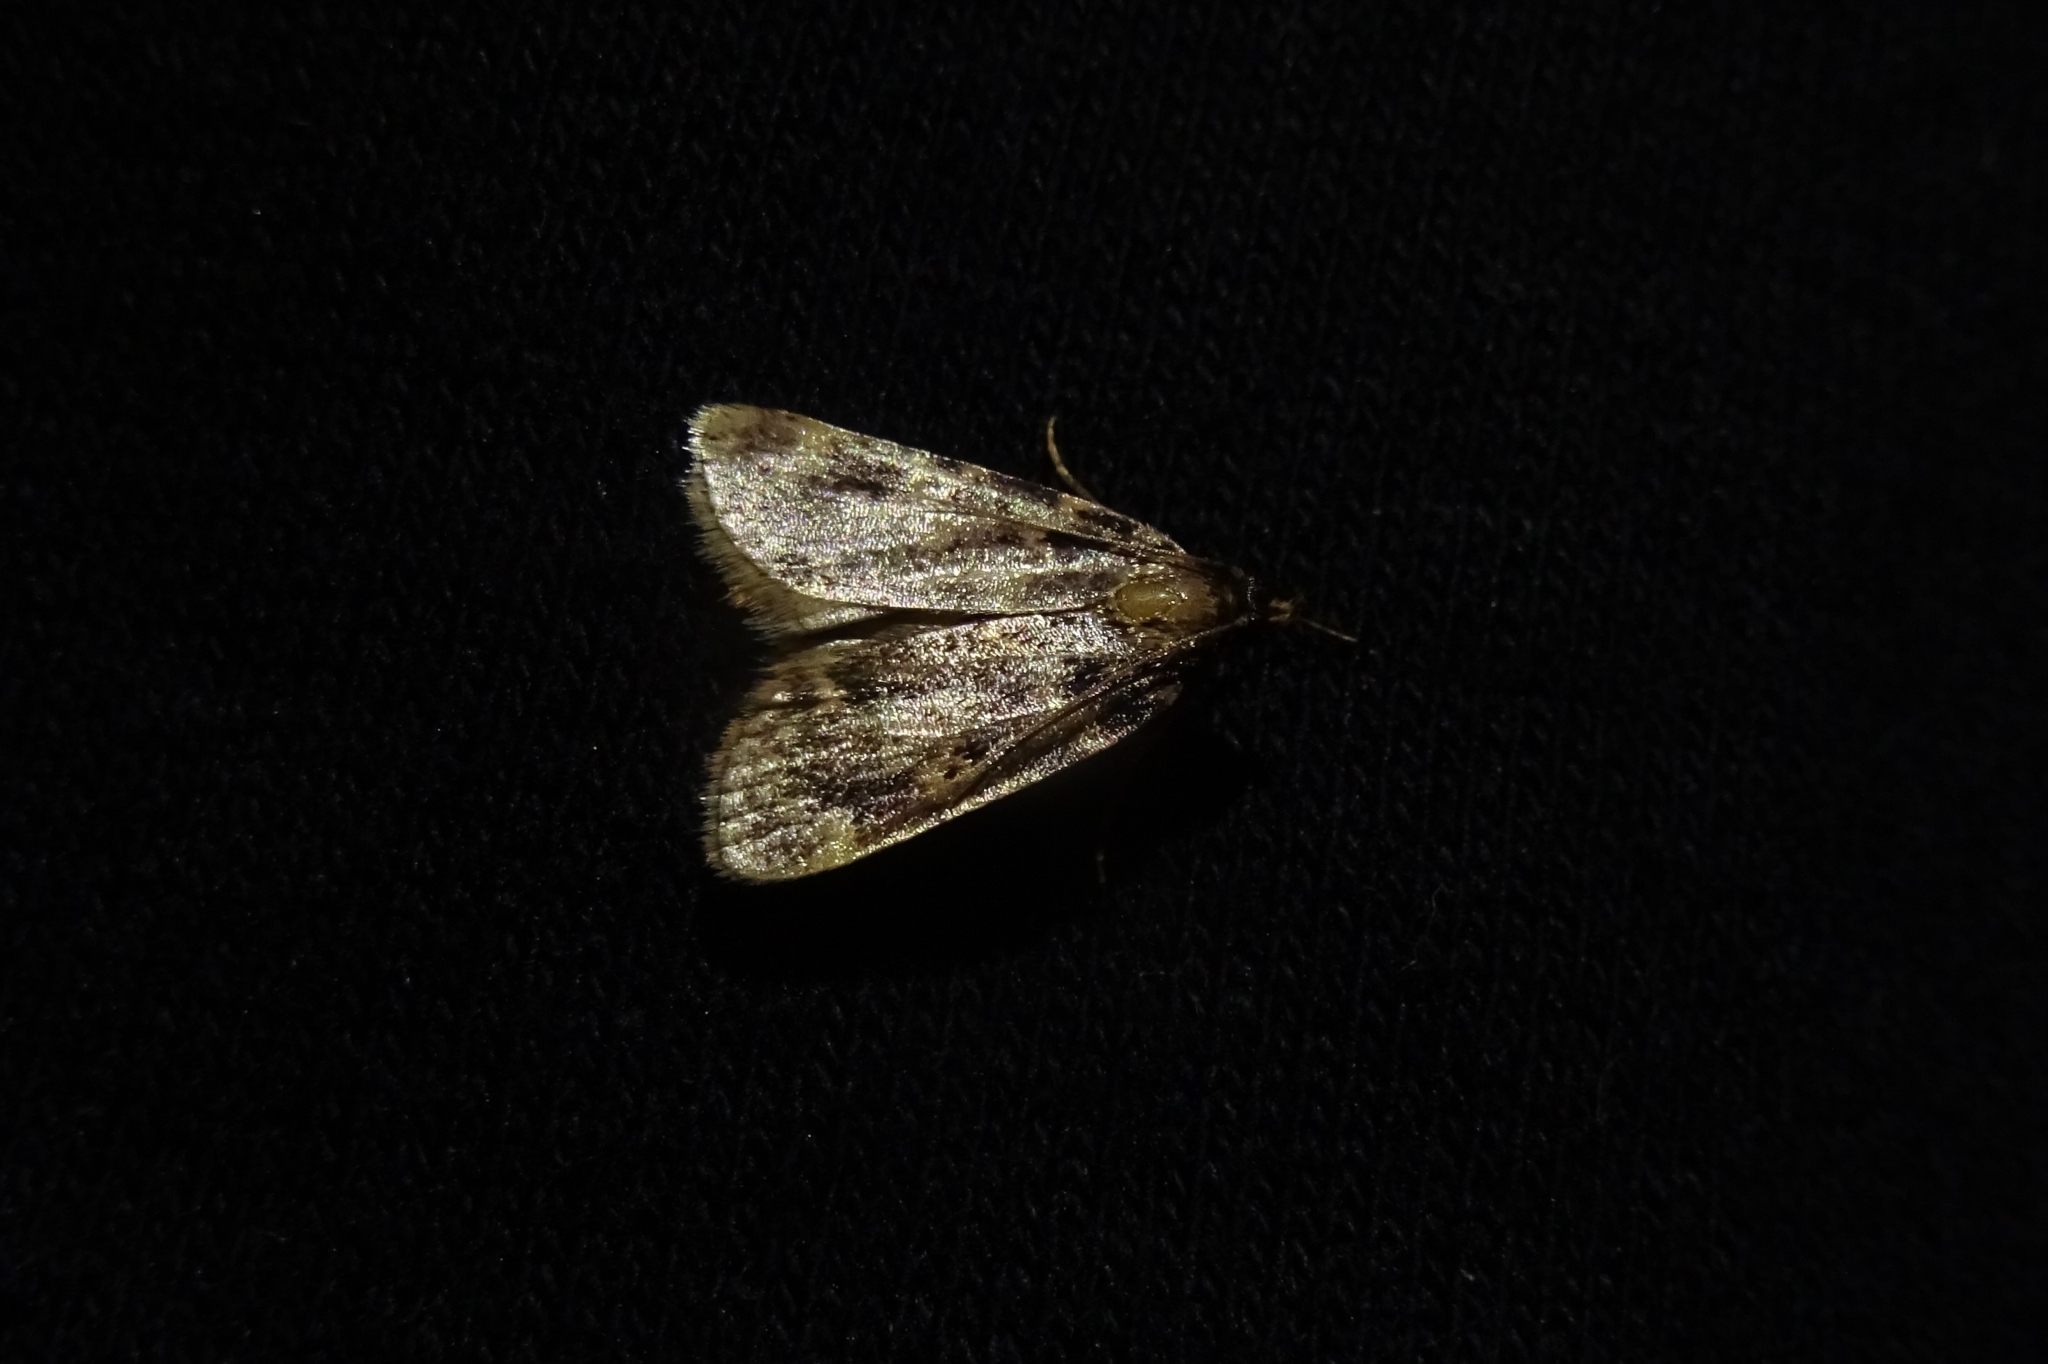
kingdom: Animalia
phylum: Arthropoda
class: Insecta
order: Lepidoptera
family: Pyralidae
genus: Aglossa
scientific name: Aglossa pinguinalis
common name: Large tabby
